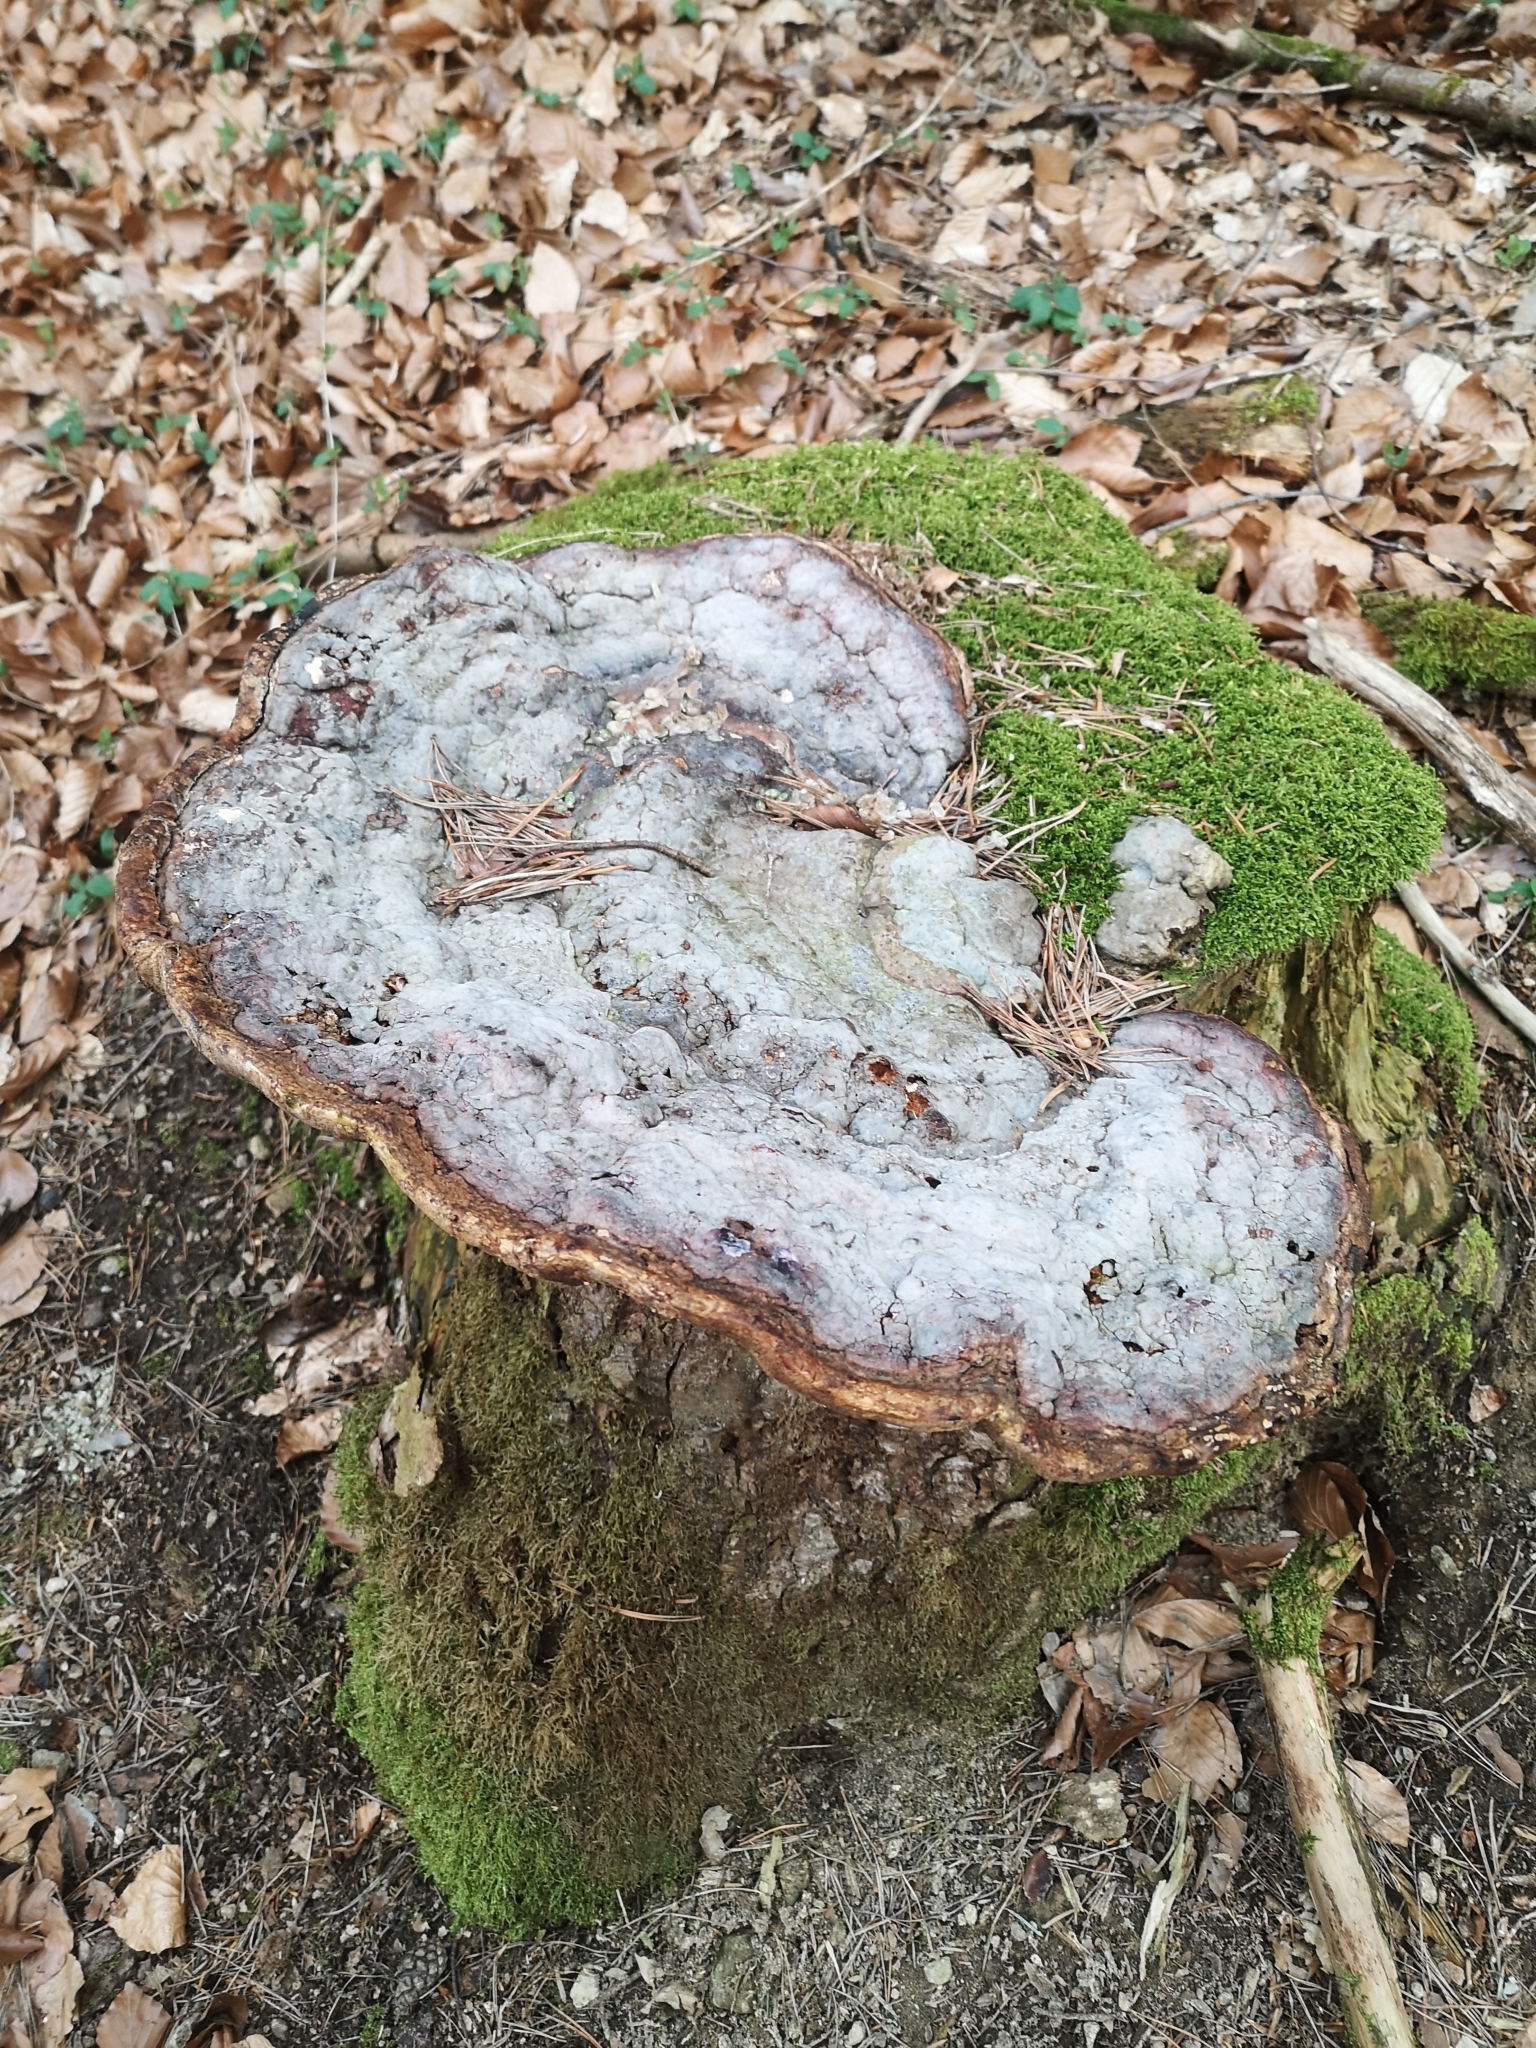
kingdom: Fungi
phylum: Basidiomycota
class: Agaricomycetes
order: Polyporales
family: Fomitopsidaceae
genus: Fomitopsis
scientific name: Fomitopsis pinicola
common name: Red-belted bracket
